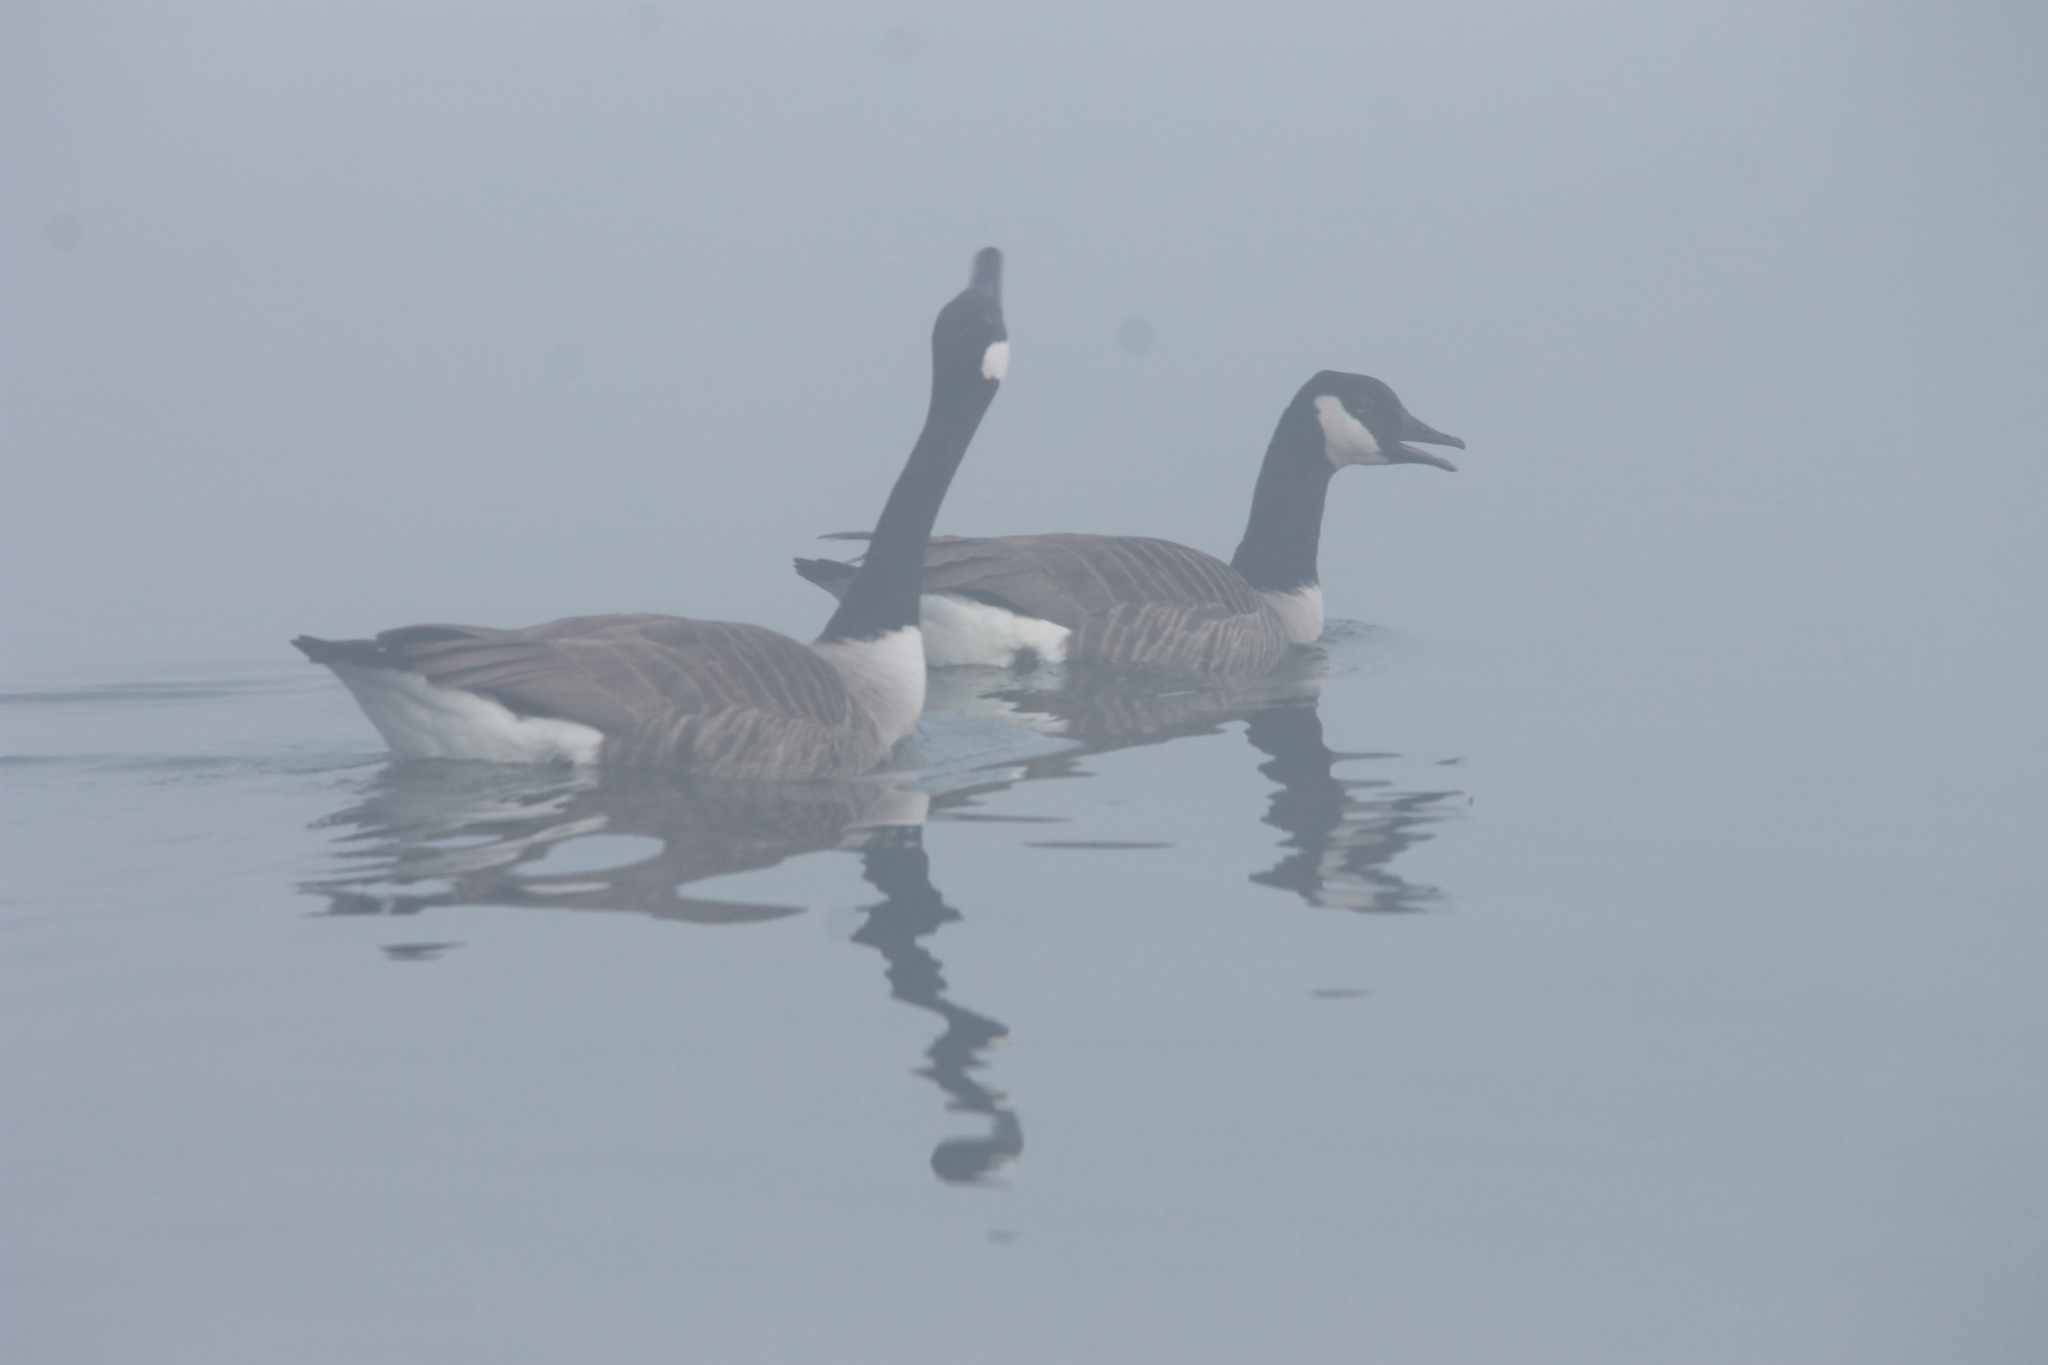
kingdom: Animalia
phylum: Chordata
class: Aves
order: Anseriformes
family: Anatidae
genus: Branta
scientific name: Branta canadensis
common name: Canada goose
